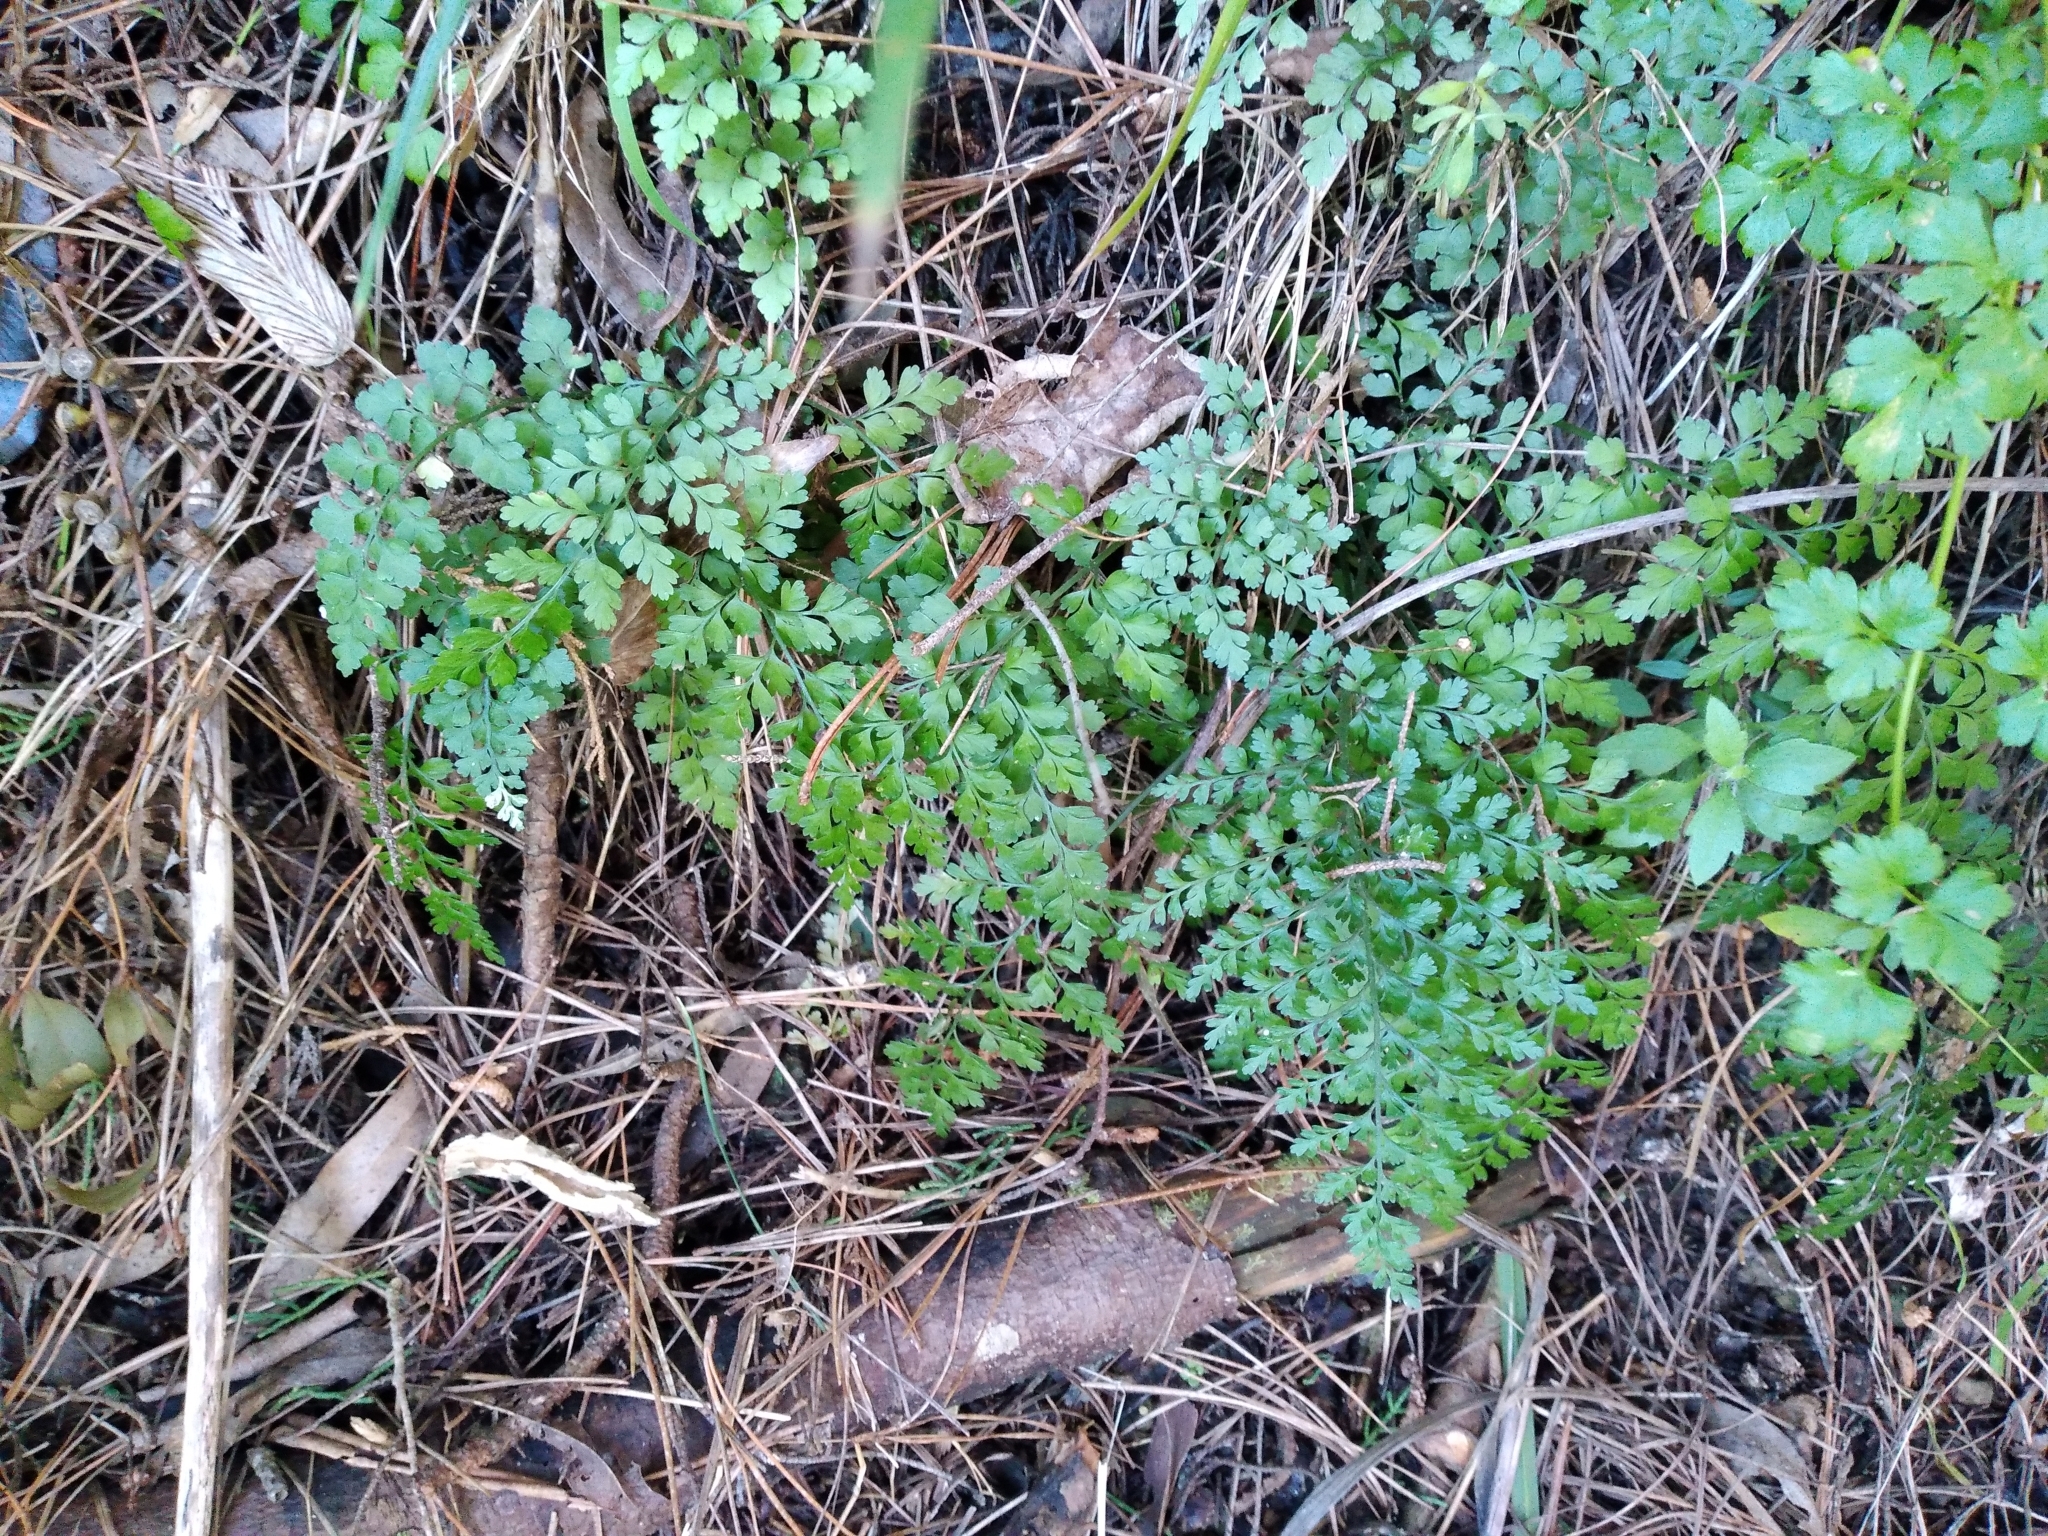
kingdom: Plantae
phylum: Tracheophyta
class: Polypodiopsida
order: Polypodiales
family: Aspleniaceae
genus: Asplenium
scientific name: Asplenium hookerianum
